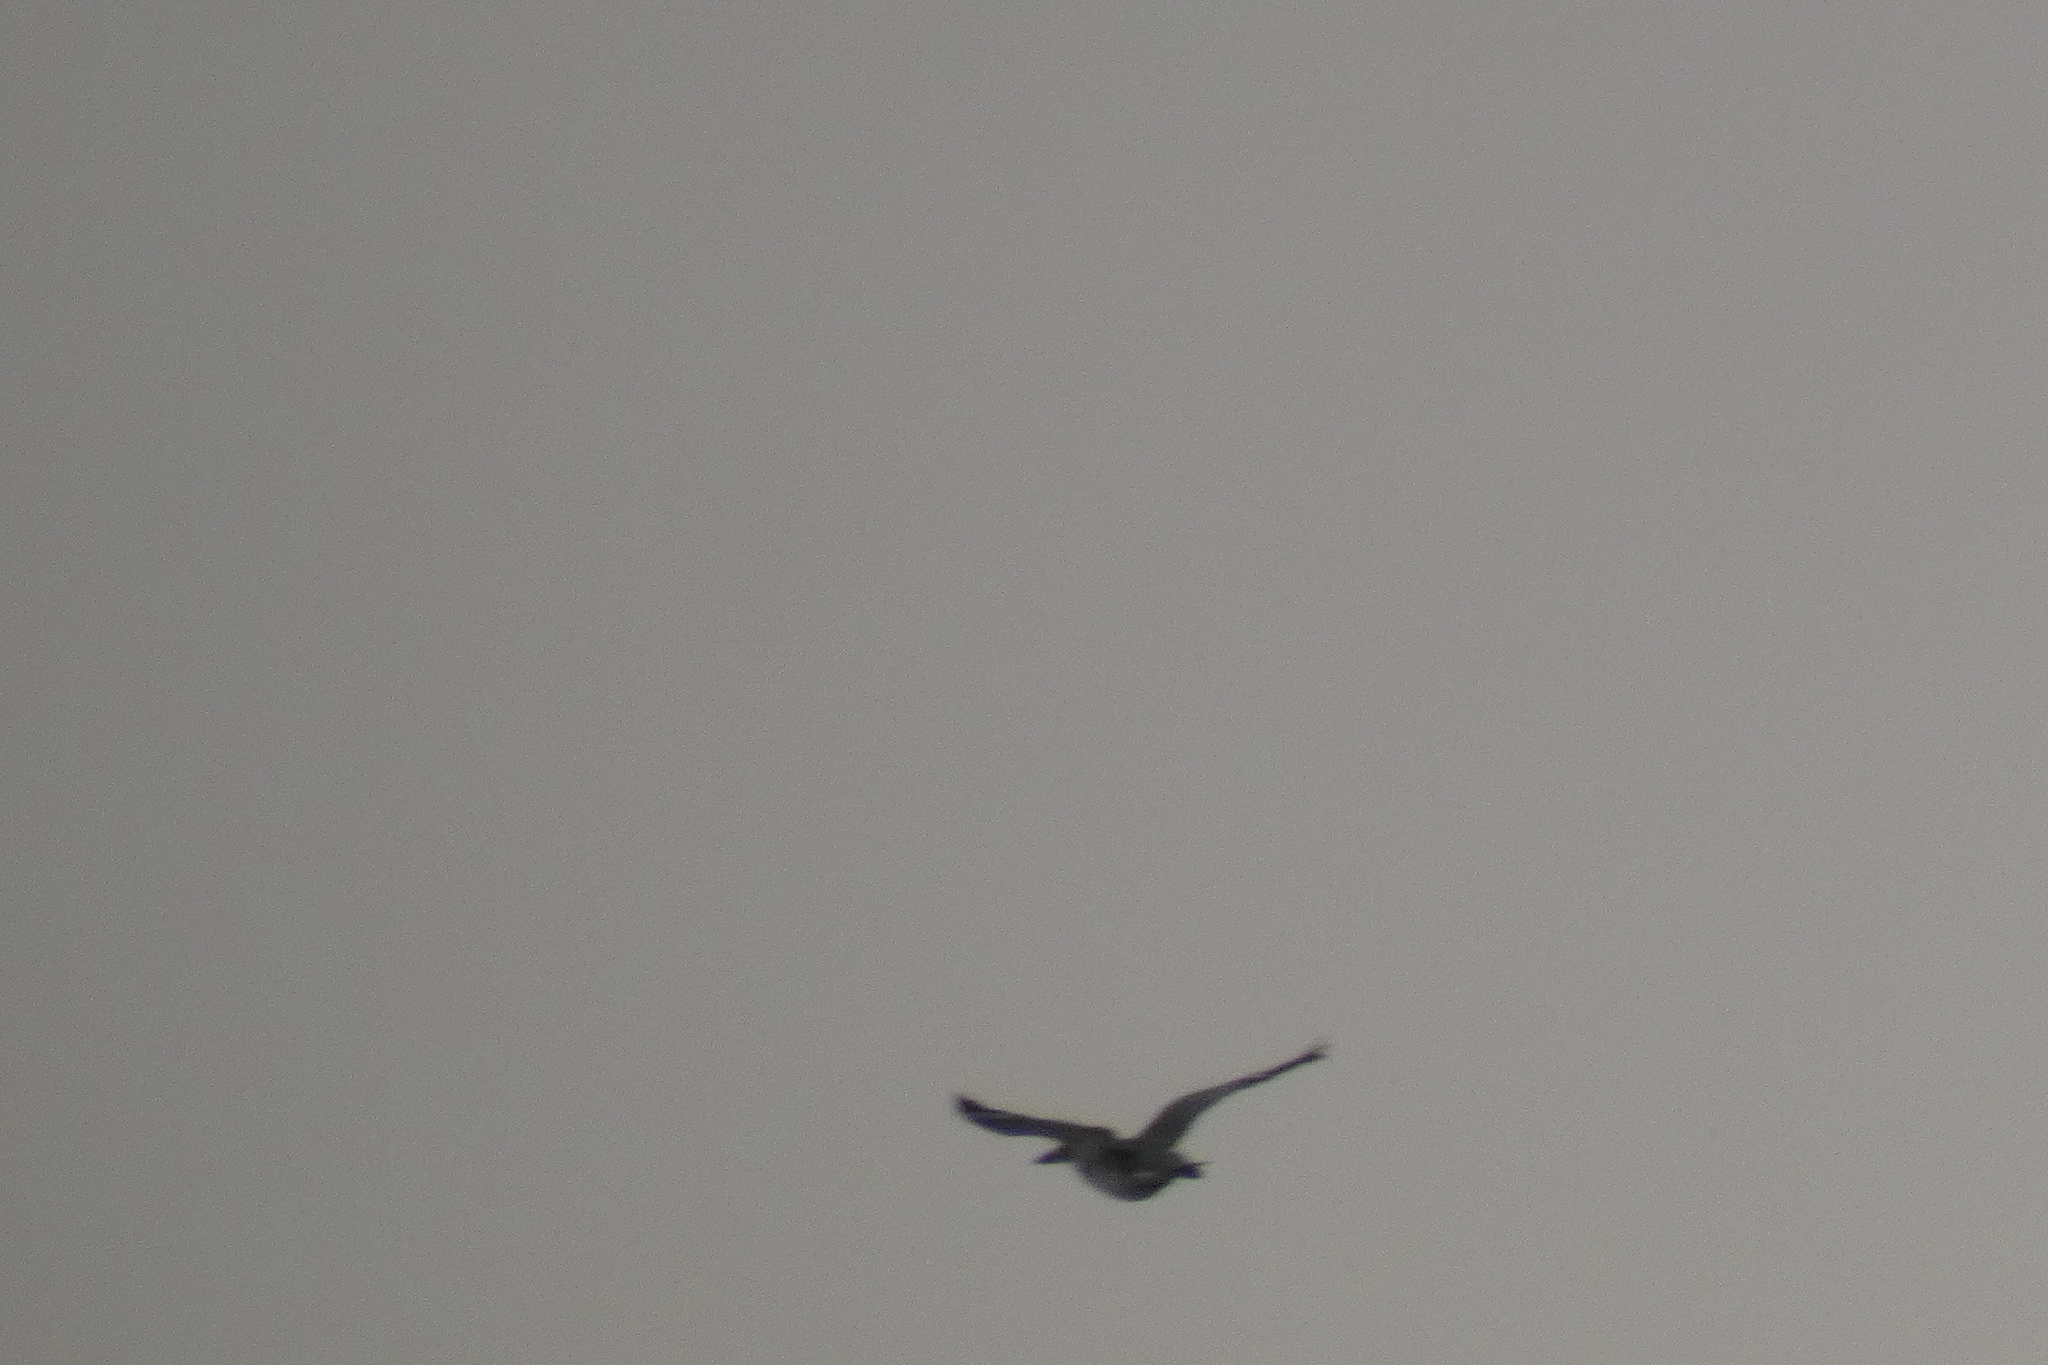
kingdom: Animalia
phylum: Chordata
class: Aves
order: Coraciiformes
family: Alcedinidae
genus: Megaceryle
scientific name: Megaceryle alcyon
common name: Belted kingfisher
